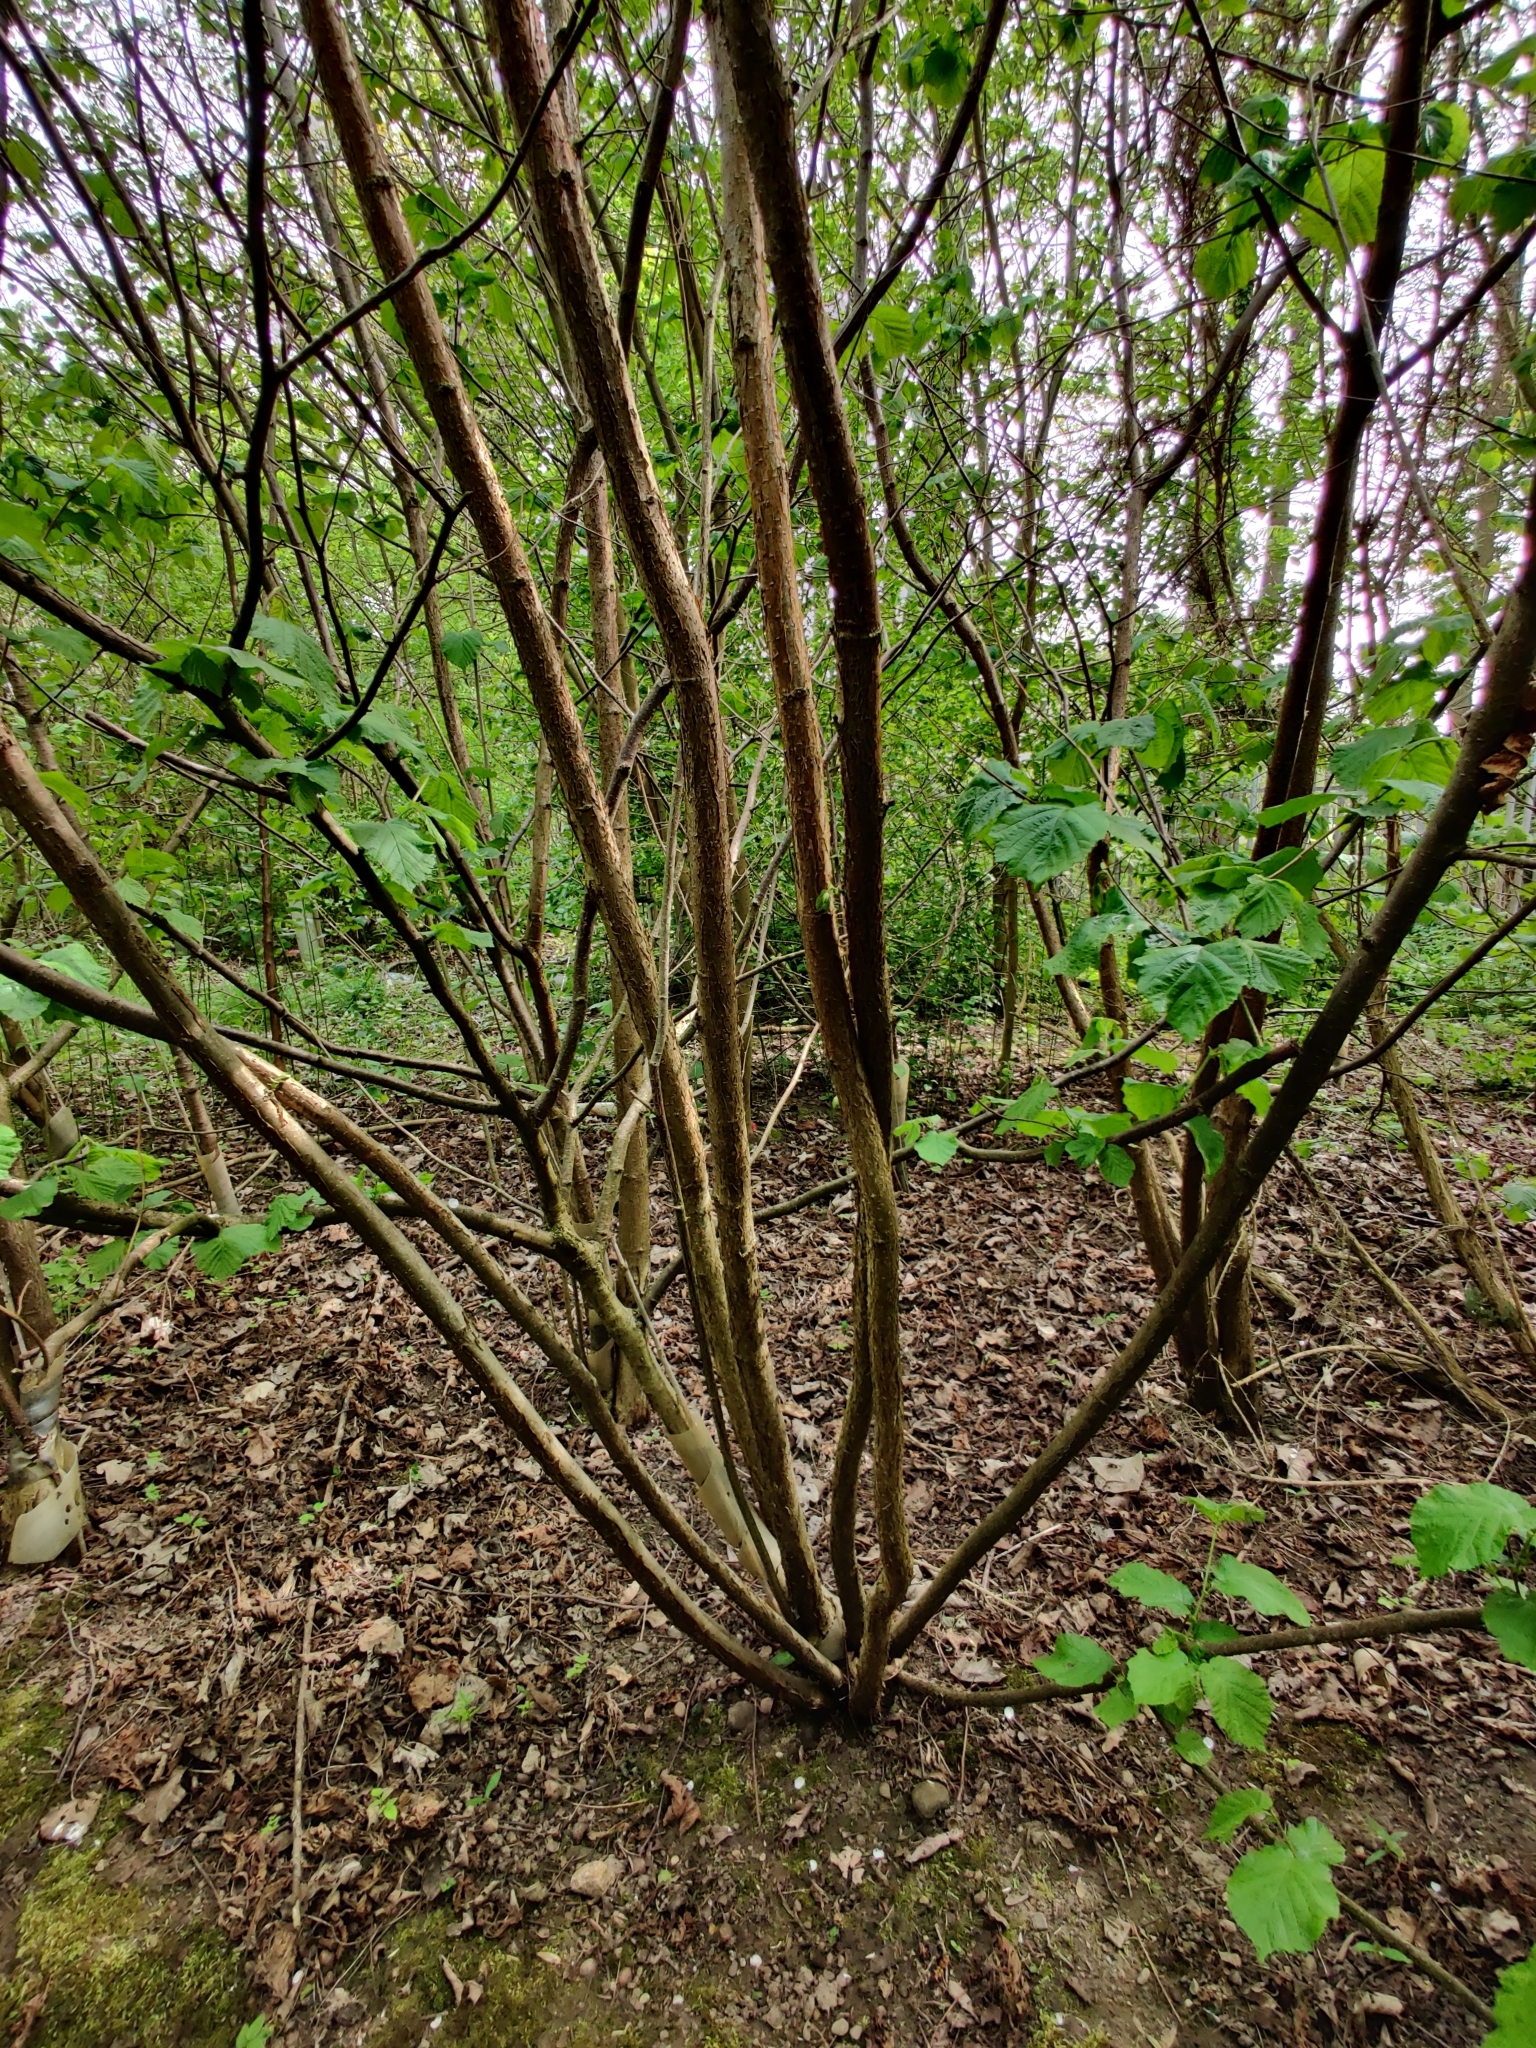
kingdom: Plantae
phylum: Tracheophyta
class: Magnoliopsida
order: Fagales
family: Betulaceae
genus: Corylus
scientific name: Corylus avellana
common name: European hazel
